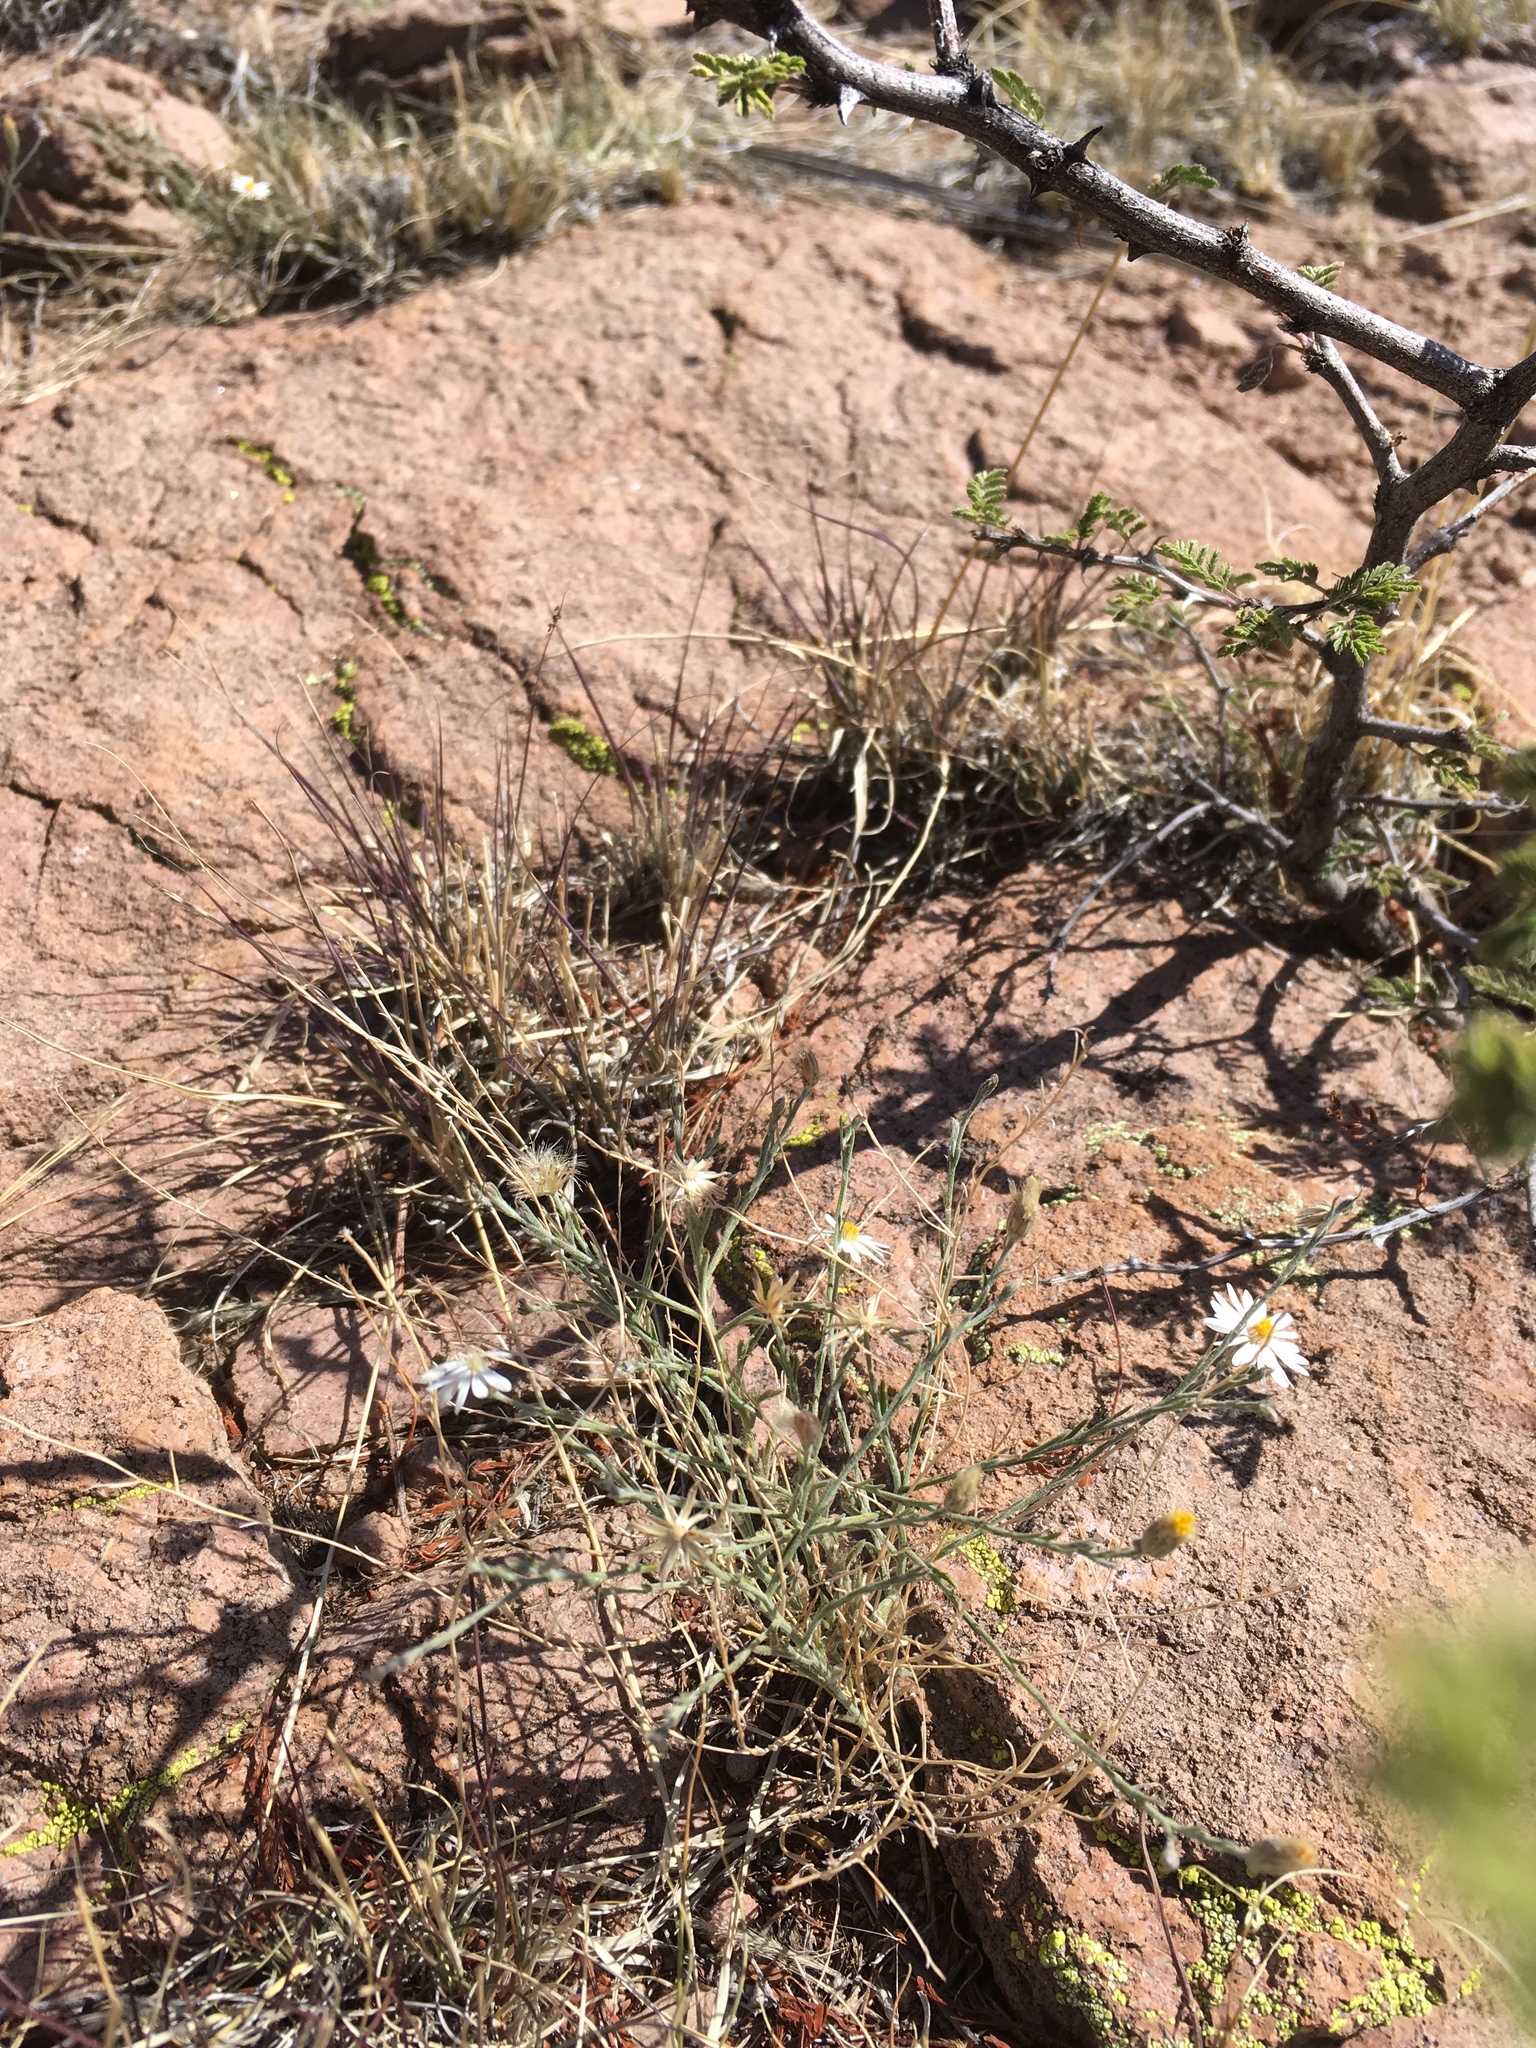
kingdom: Plantae
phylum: Tracheophyta
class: Magnoliopsida
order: Asterales
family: Asteraceae
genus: Chaetopappa
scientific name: Chaetopappa ericoides
